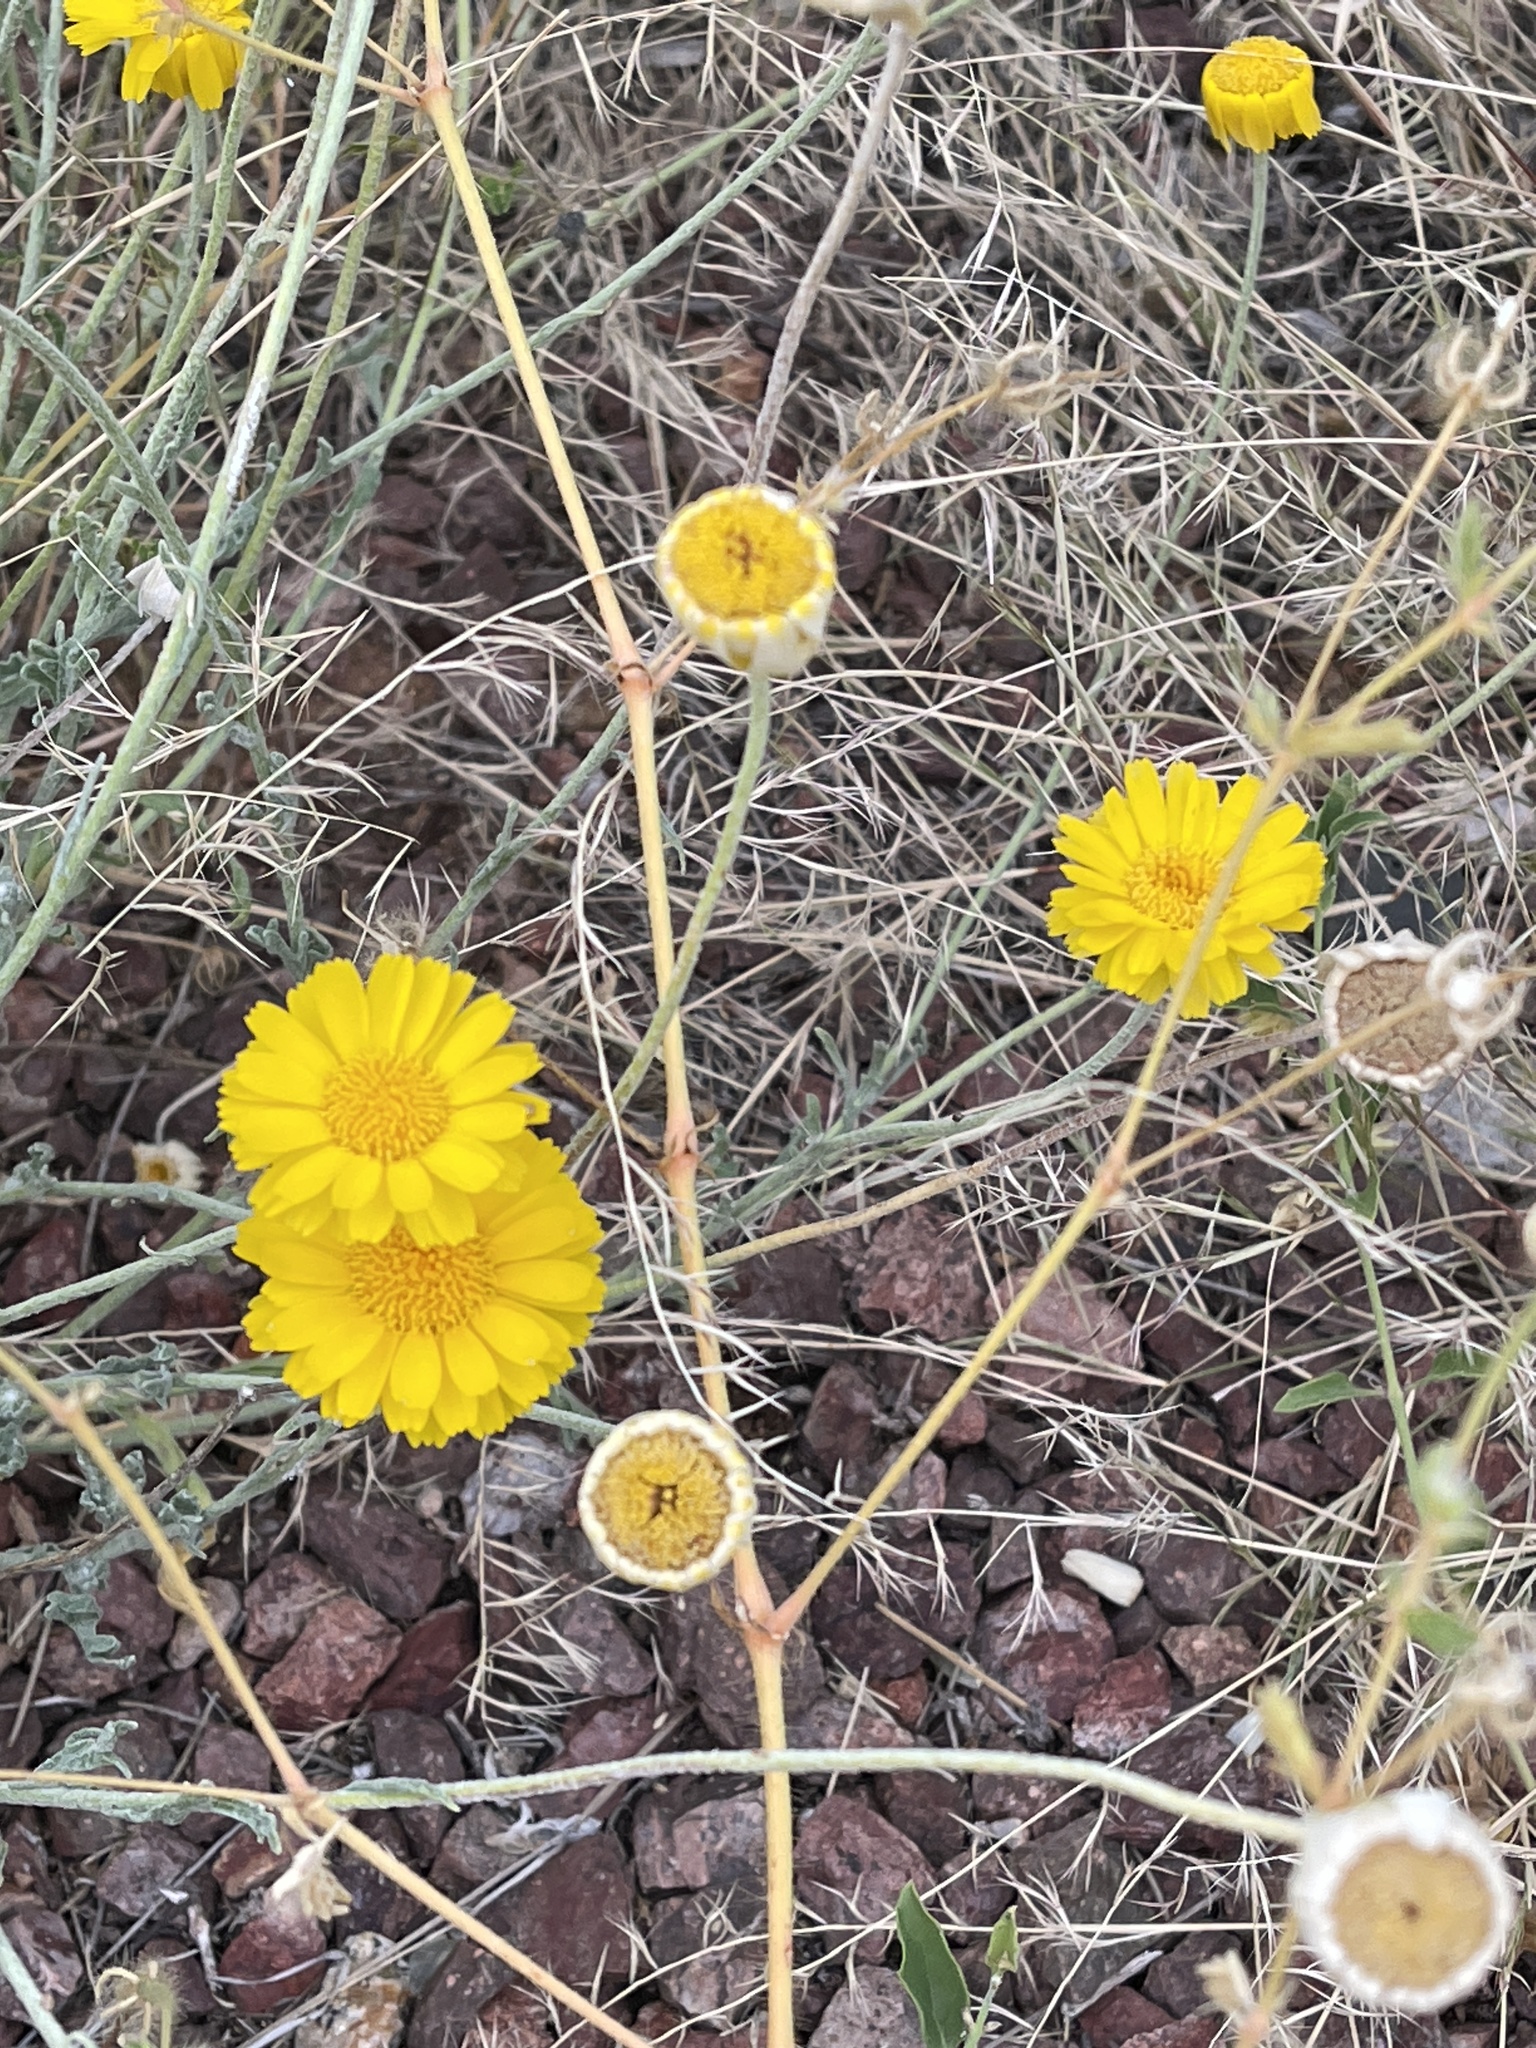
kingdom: Plantae
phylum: Tracheophyta
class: Magnoliopsida
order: Asterales
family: Asteraceae
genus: Baileya
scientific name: Baileya multiradiata
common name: Desert-marigold
